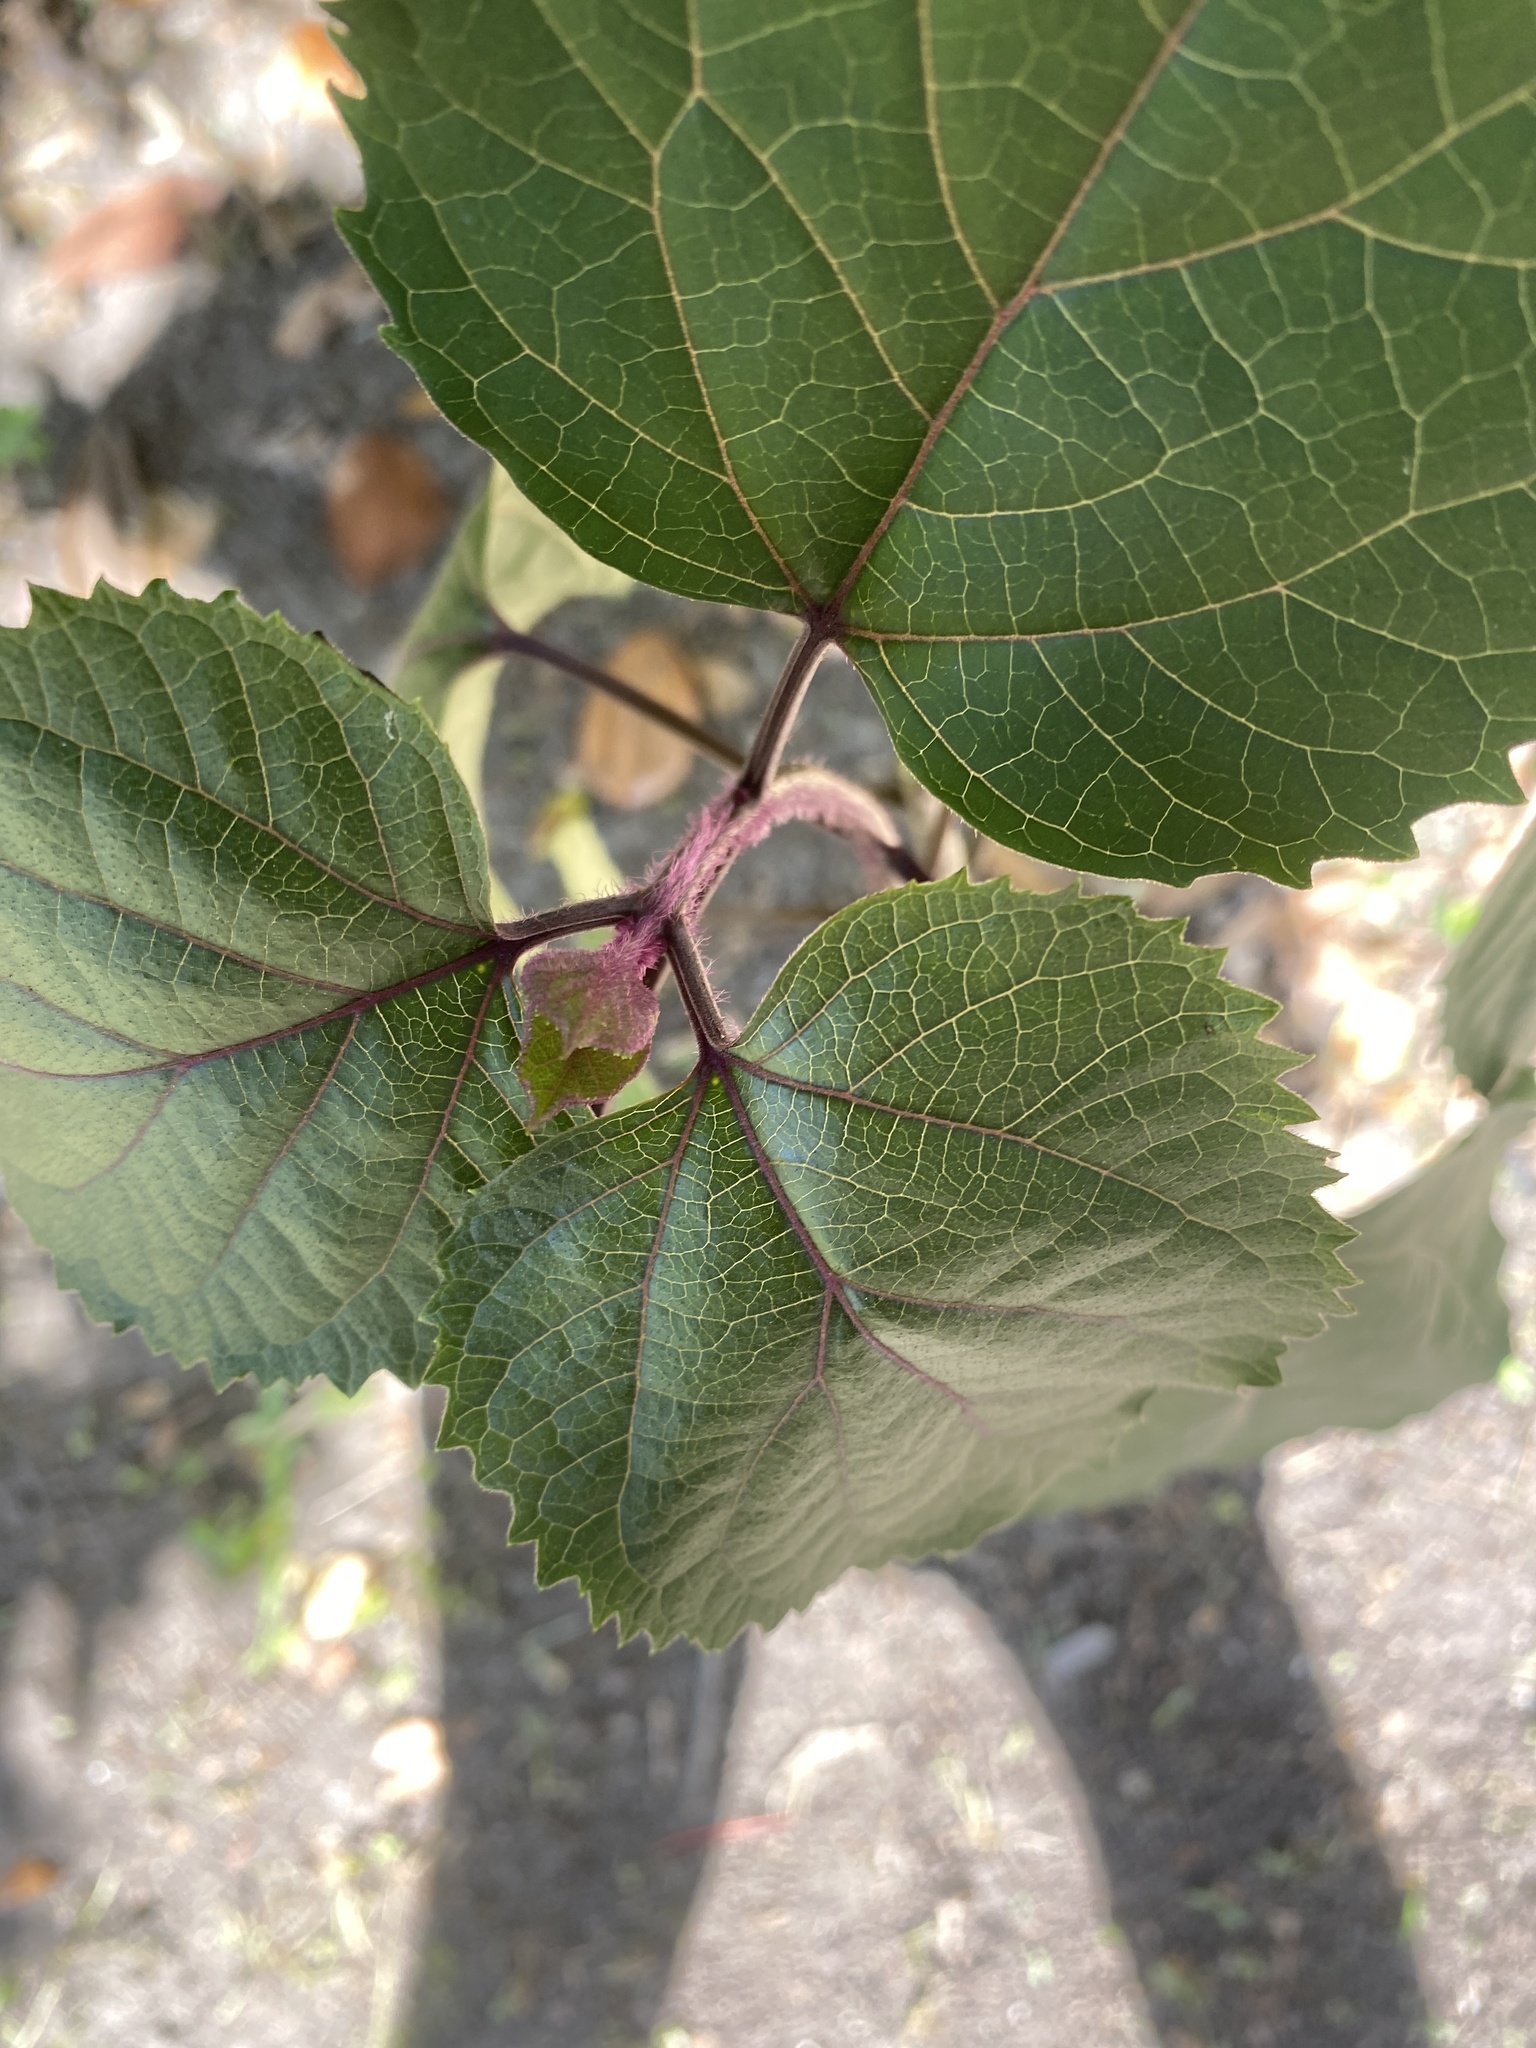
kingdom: Plantae
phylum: Tracheophyta
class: Magnoliopsida
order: Lamiales
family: Lamiaceae
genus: Clerodendrum
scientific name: Clerodendrum bungei
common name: Rose glorybower
